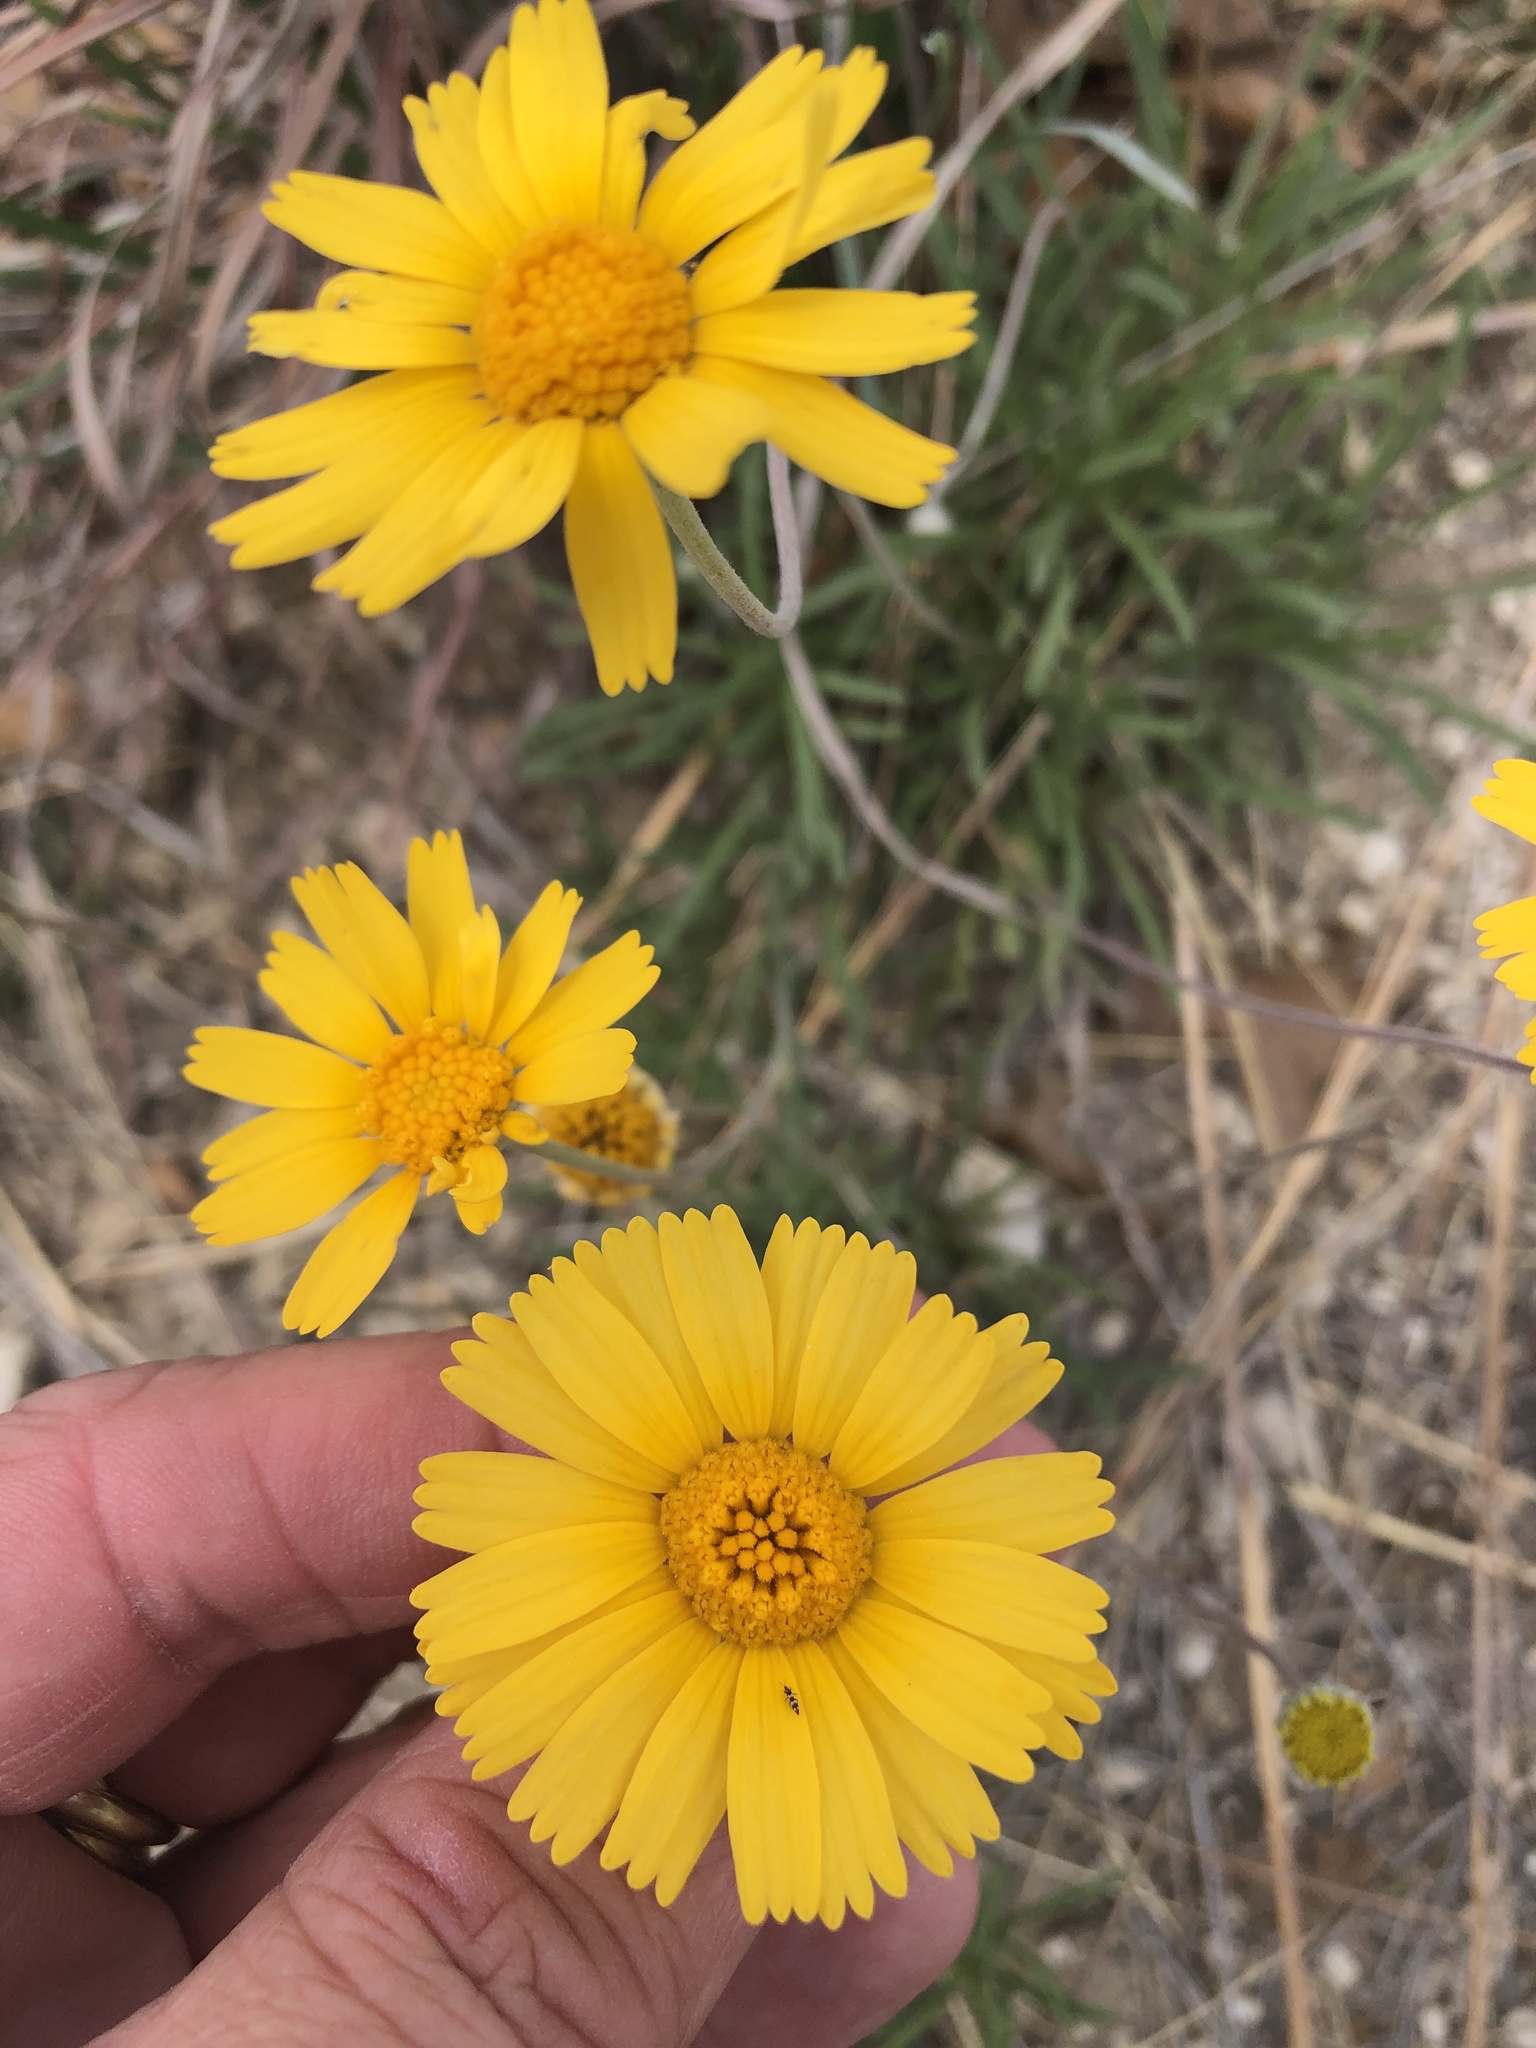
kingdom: Plantae
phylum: Tracheophyta
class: Magnoliopsida
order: Asterales
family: Asteraceae
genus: Tetraneuris
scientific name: Tetraneuris scaposa
